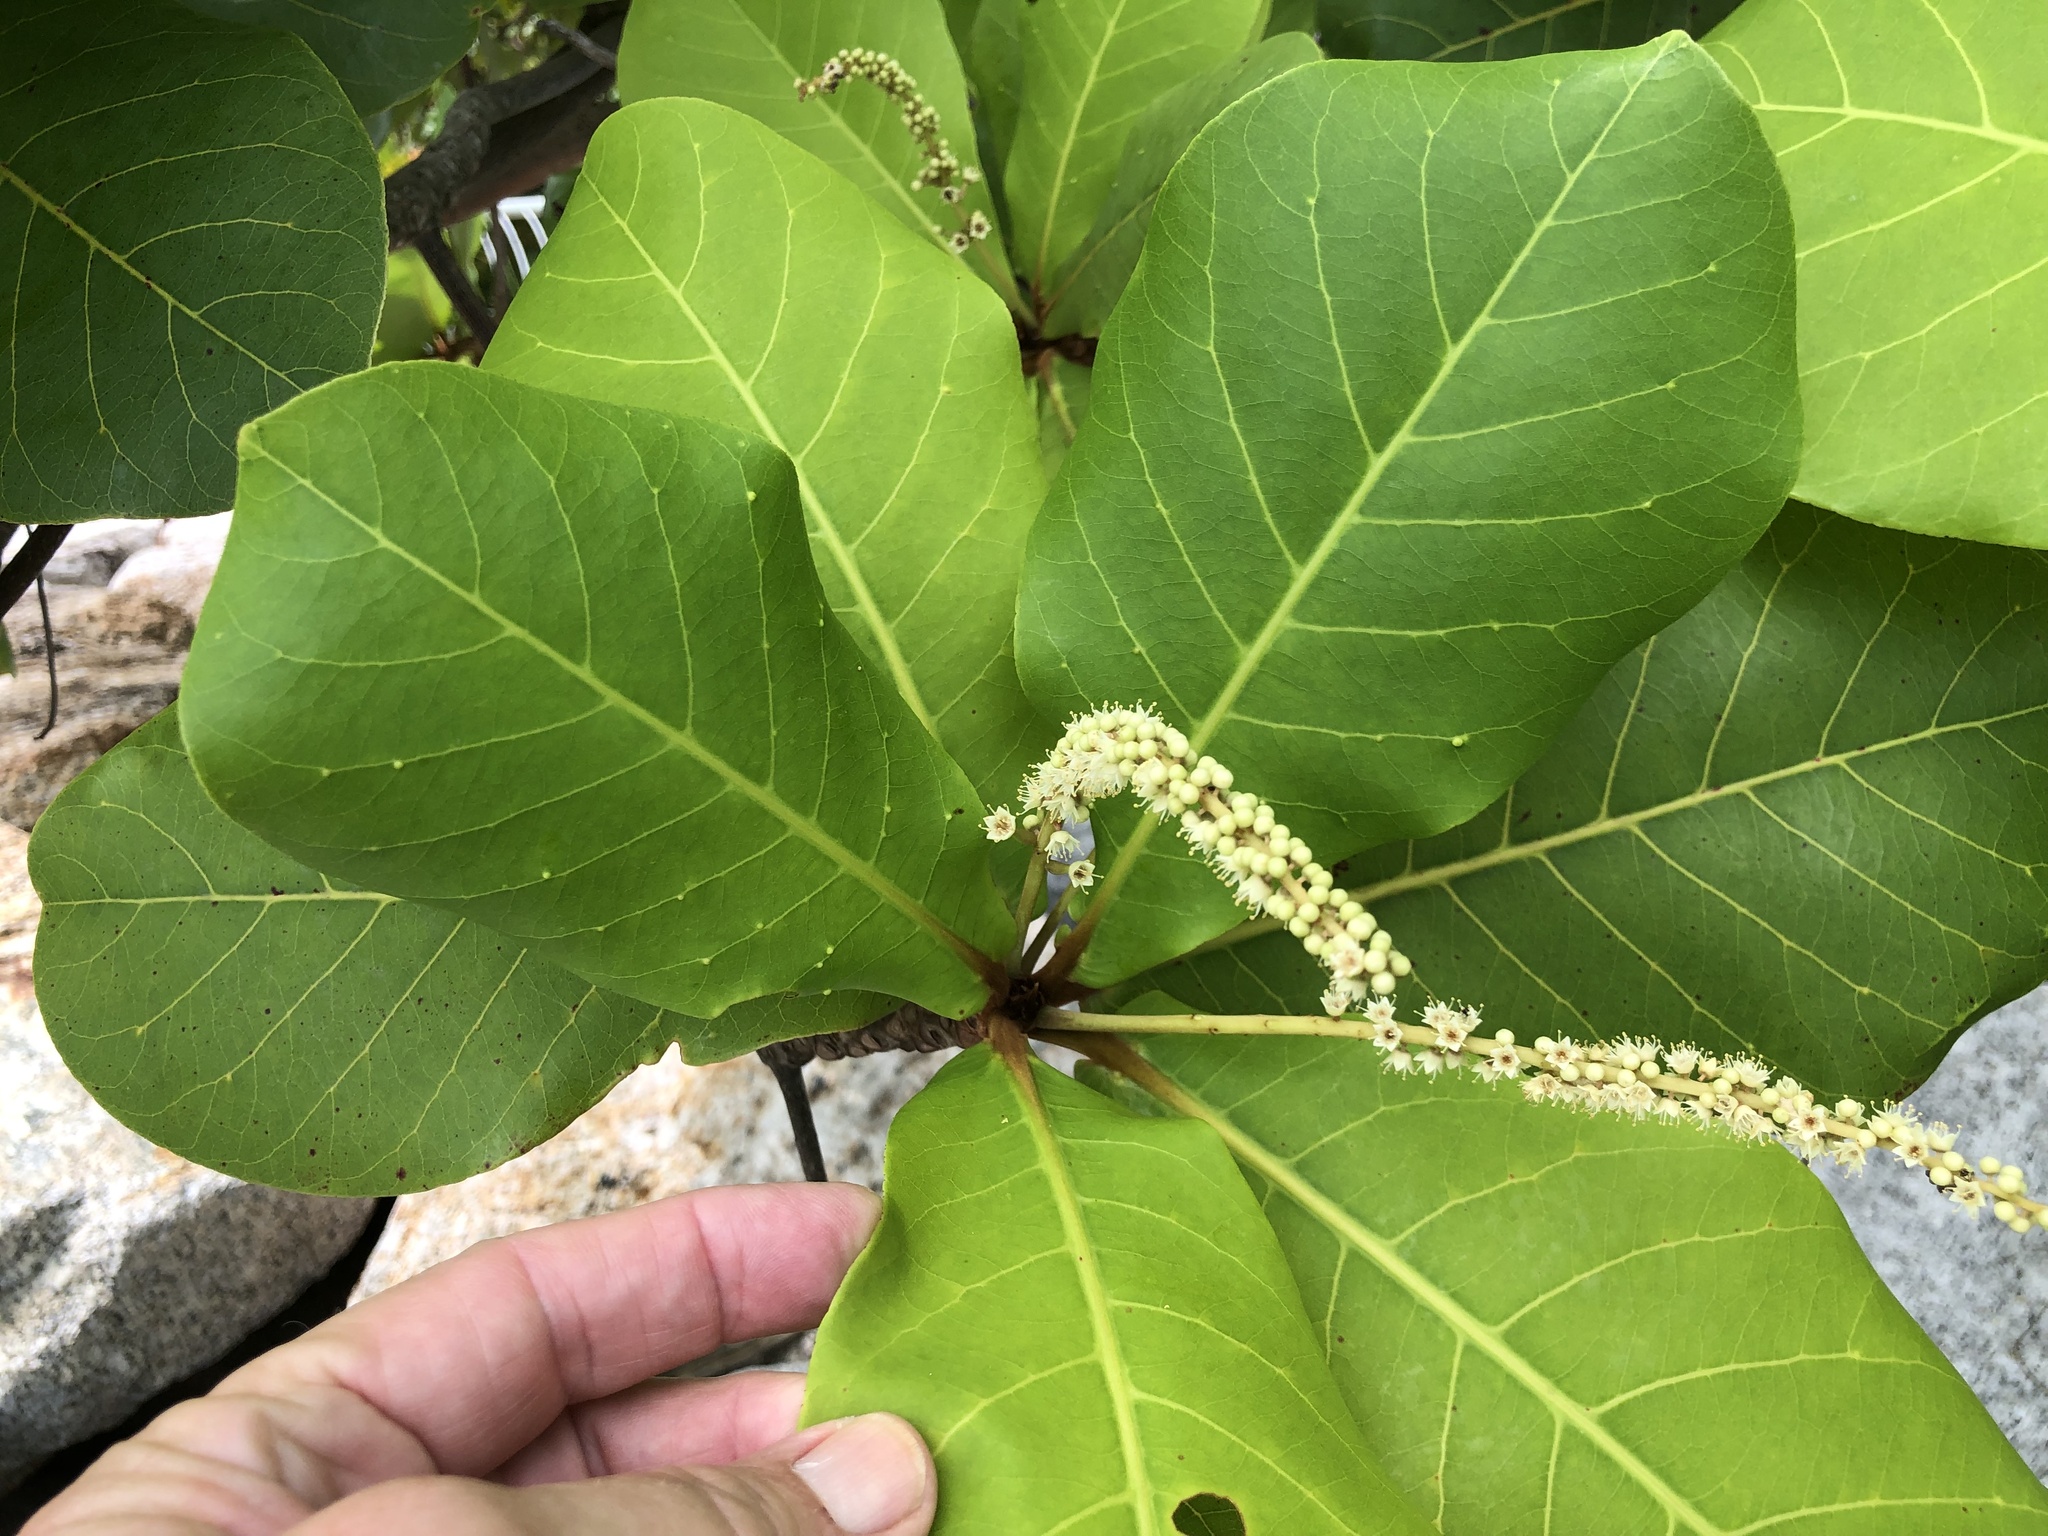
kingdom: Plantae
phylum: Tracheophyta
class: Magnoliopsida
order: Myrtales
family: Combretaceae
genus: Terminalia
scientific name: Terminalia catappa
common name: Tropical almond
